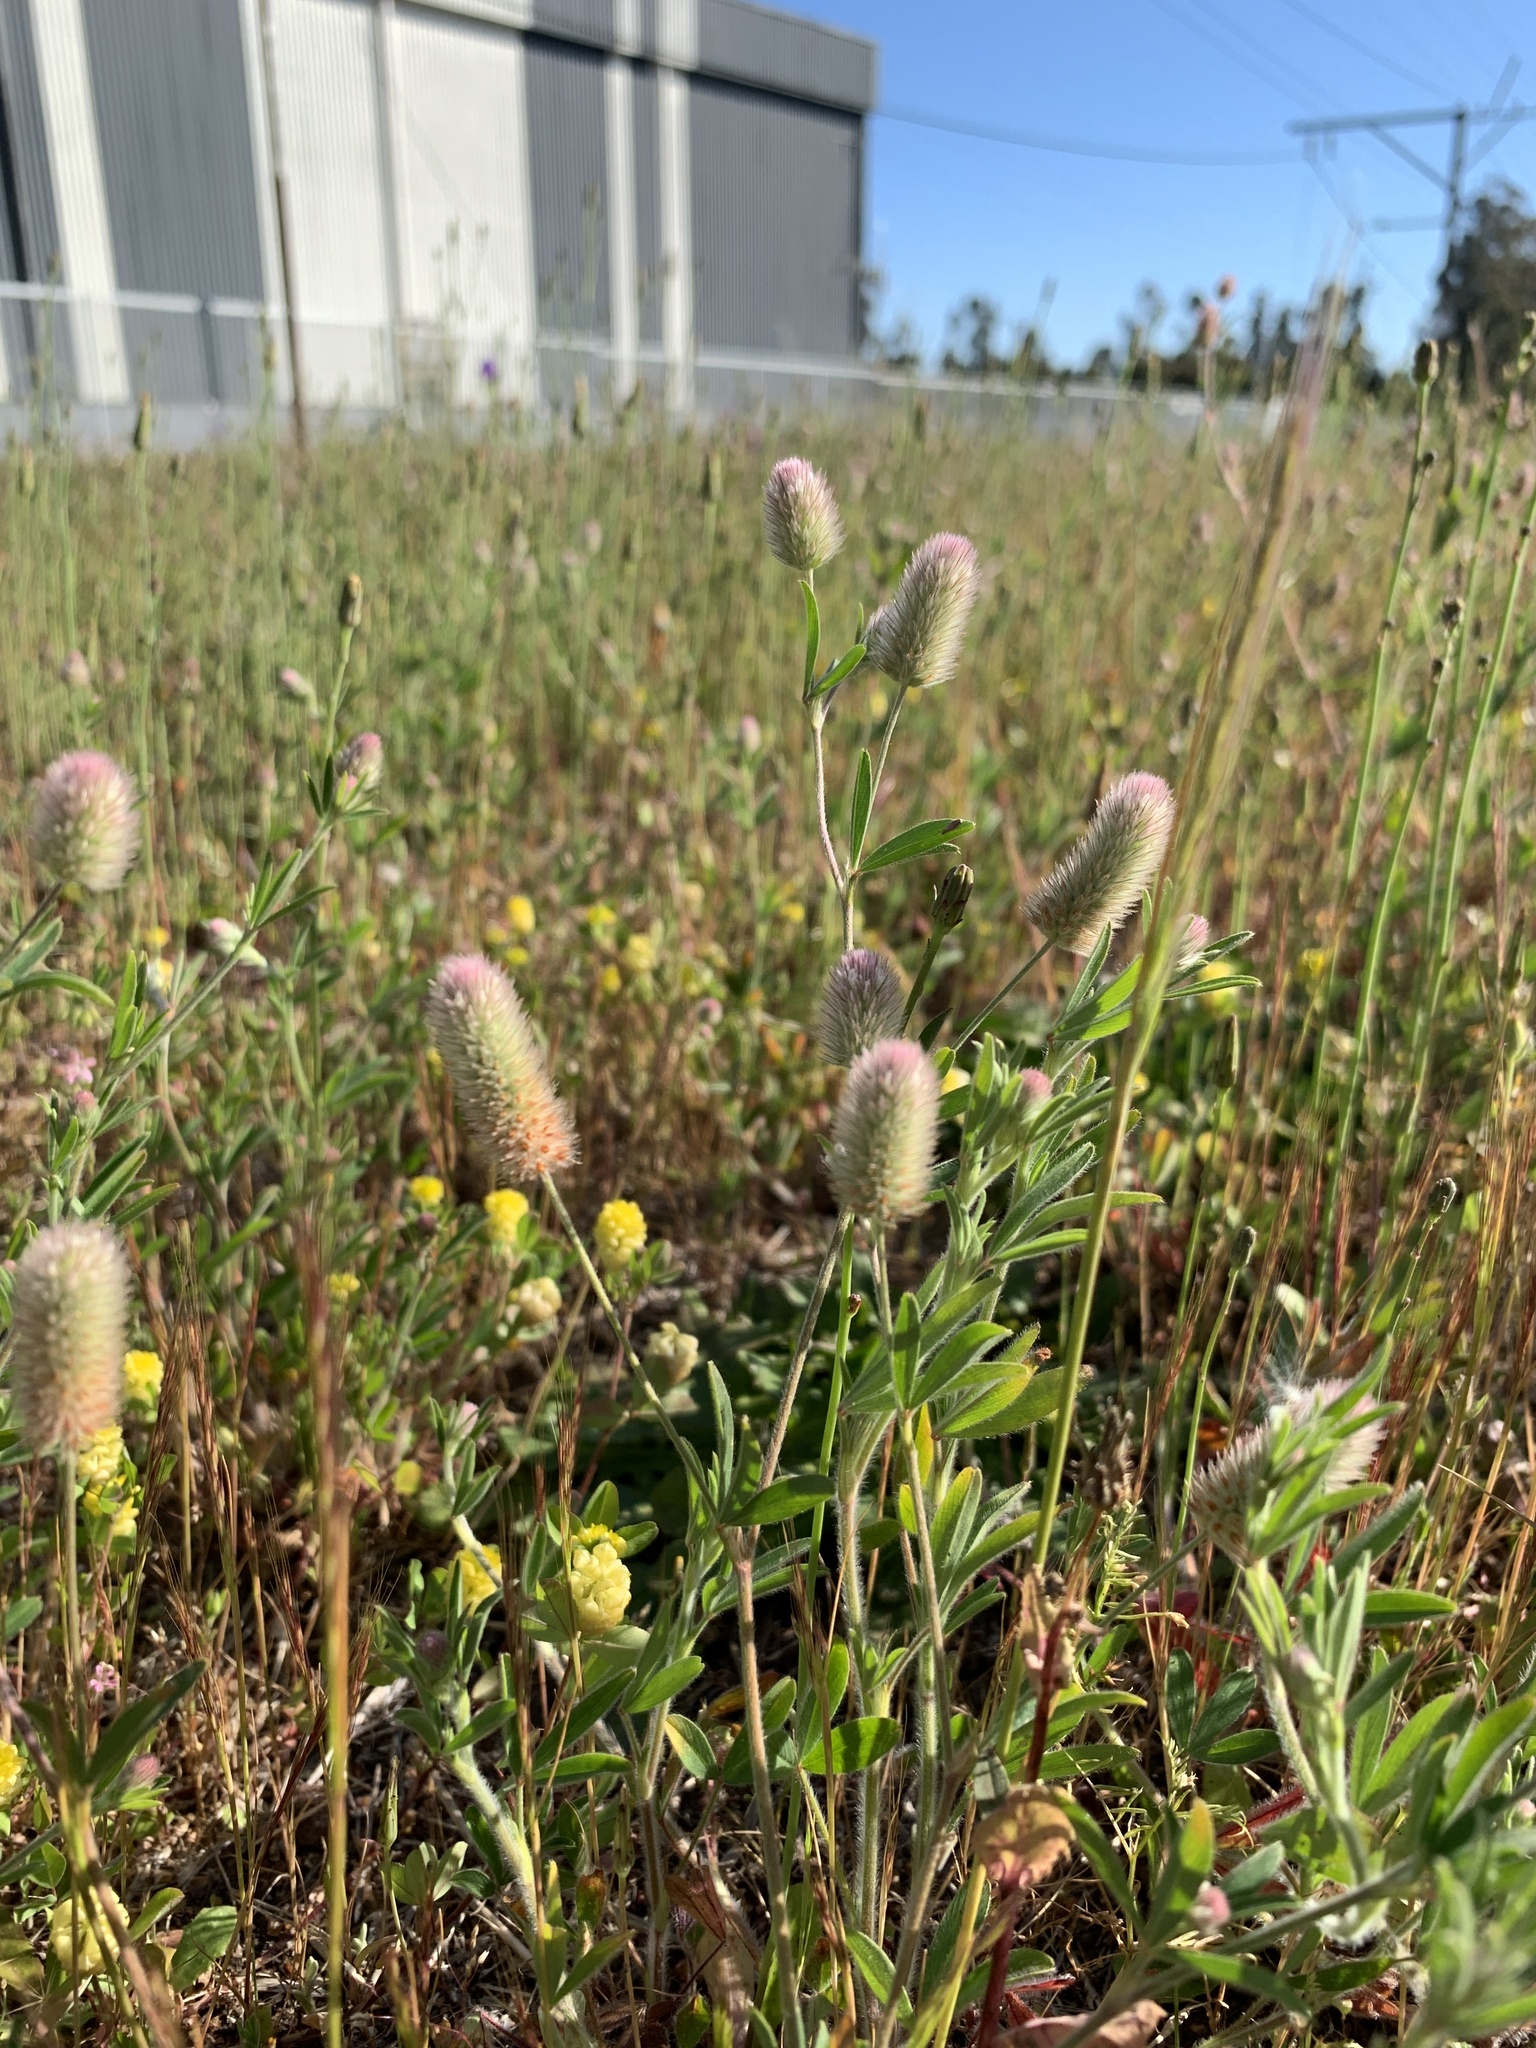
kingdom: Plantae
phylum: Tracheophyta
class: Magnoliopsida
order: Fabales
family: Fabaceae
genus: Trifolium
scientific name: Trifolium arvense
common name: Hare's-foot clover
